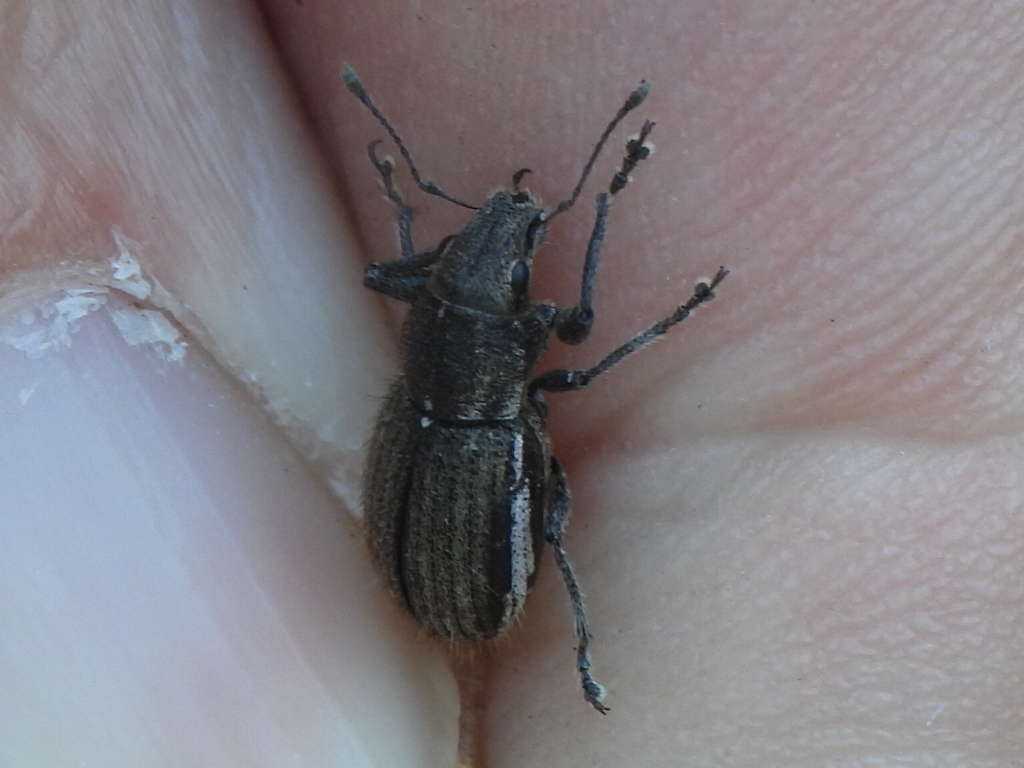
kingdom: Animalia
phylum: Arthropoda
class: Insecta
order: Coleoptera
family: Curculionidae
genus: Naupactus
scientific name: Naupactus leucoloma
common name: Whitefringed beetle
